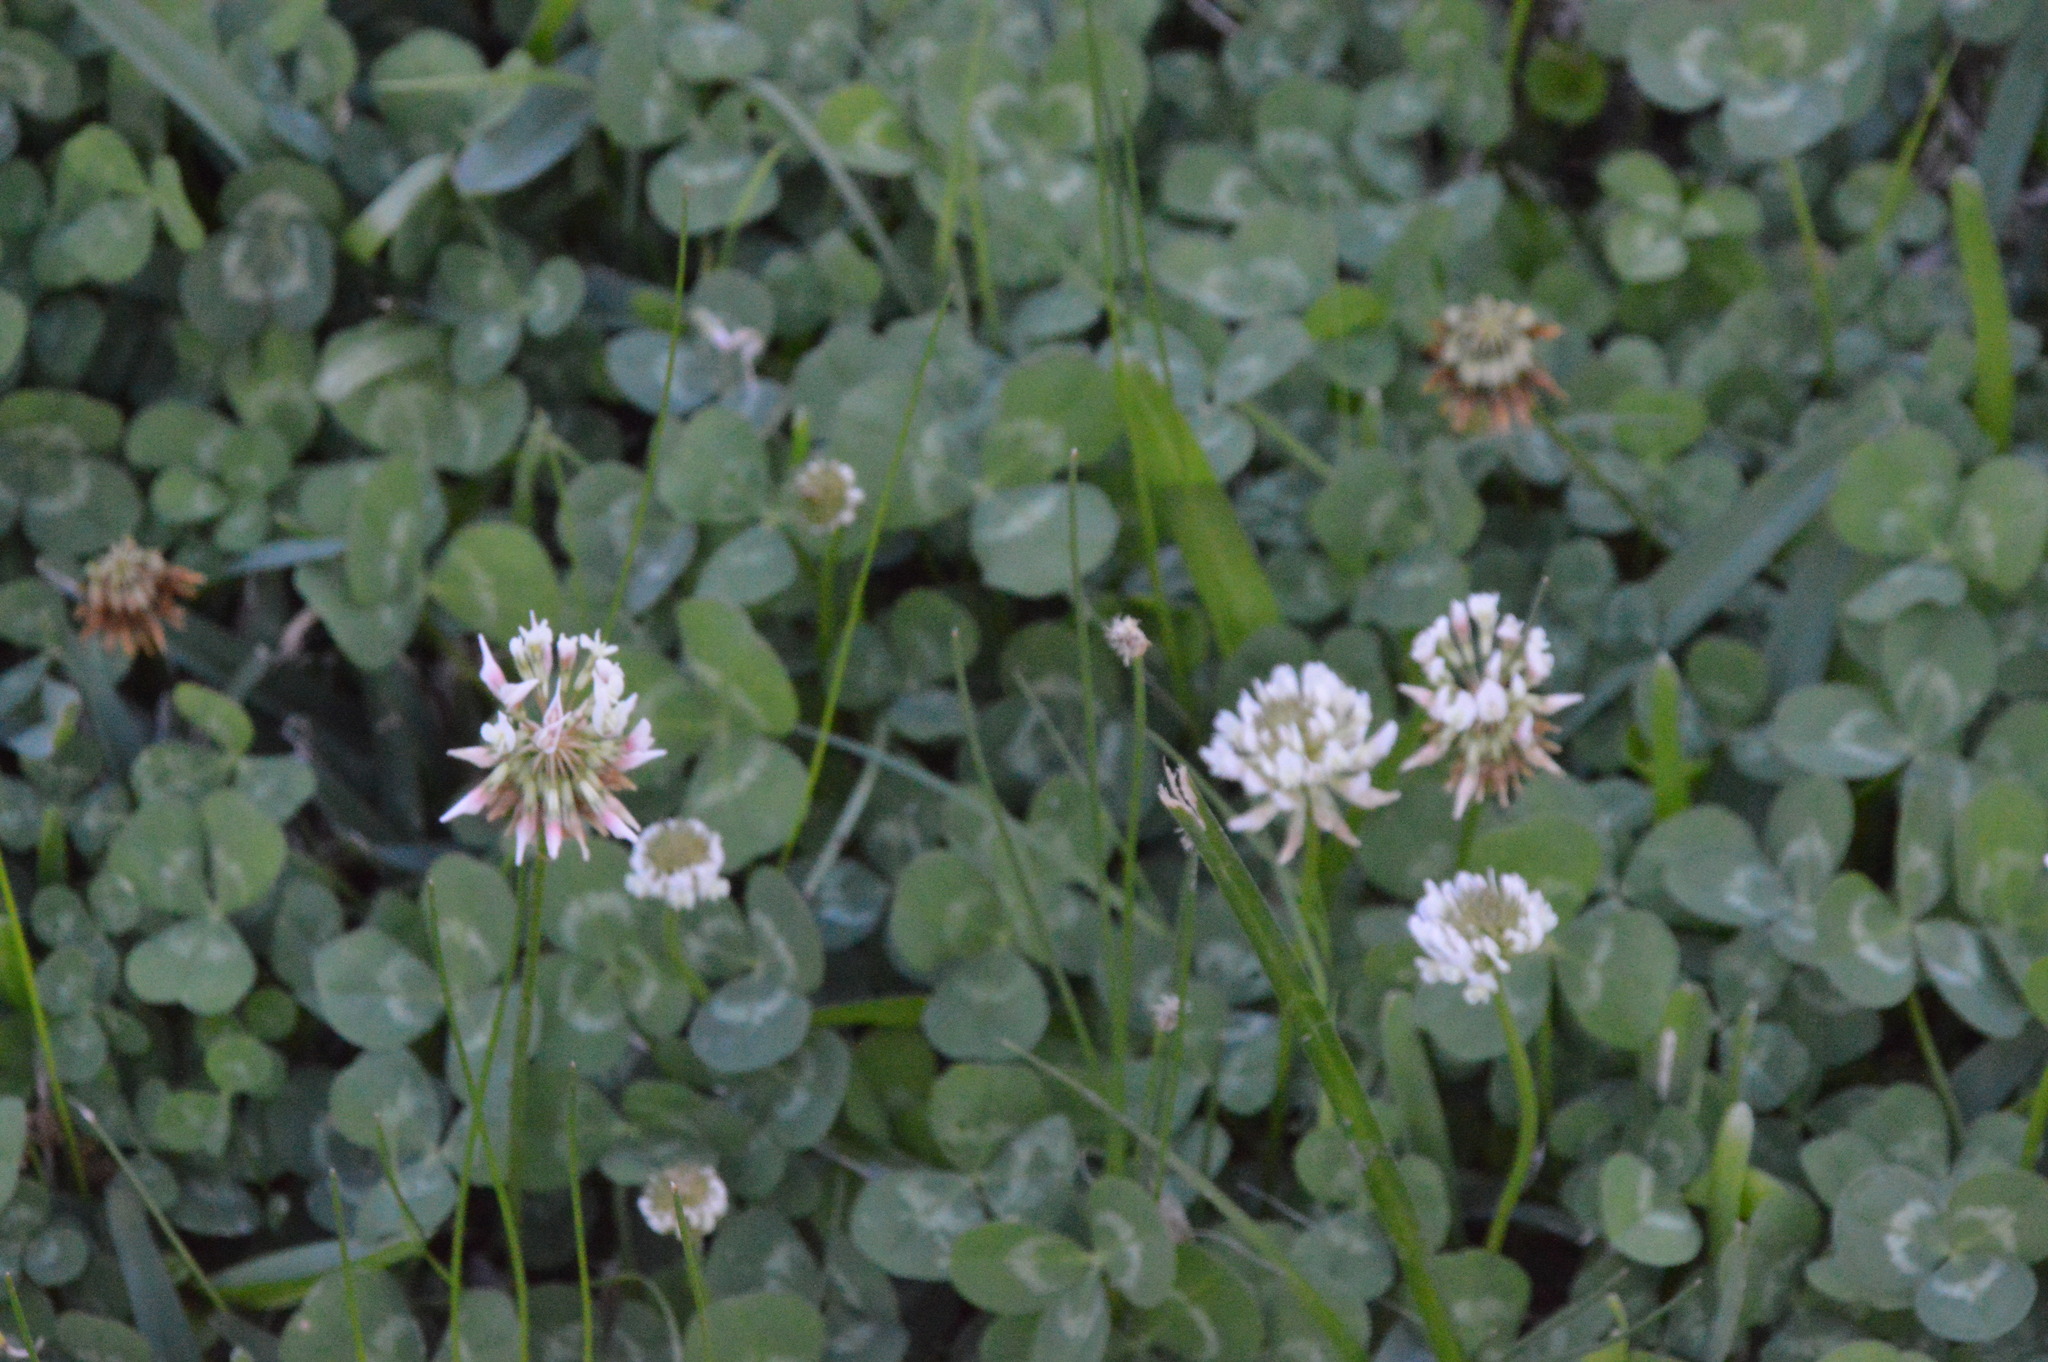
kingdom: Plantae
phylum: Tracheophyta
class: Magnoliopsida
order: Fabales
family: Fabaceae
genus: Trifolium
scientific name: Trifolium repens
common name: White clover
